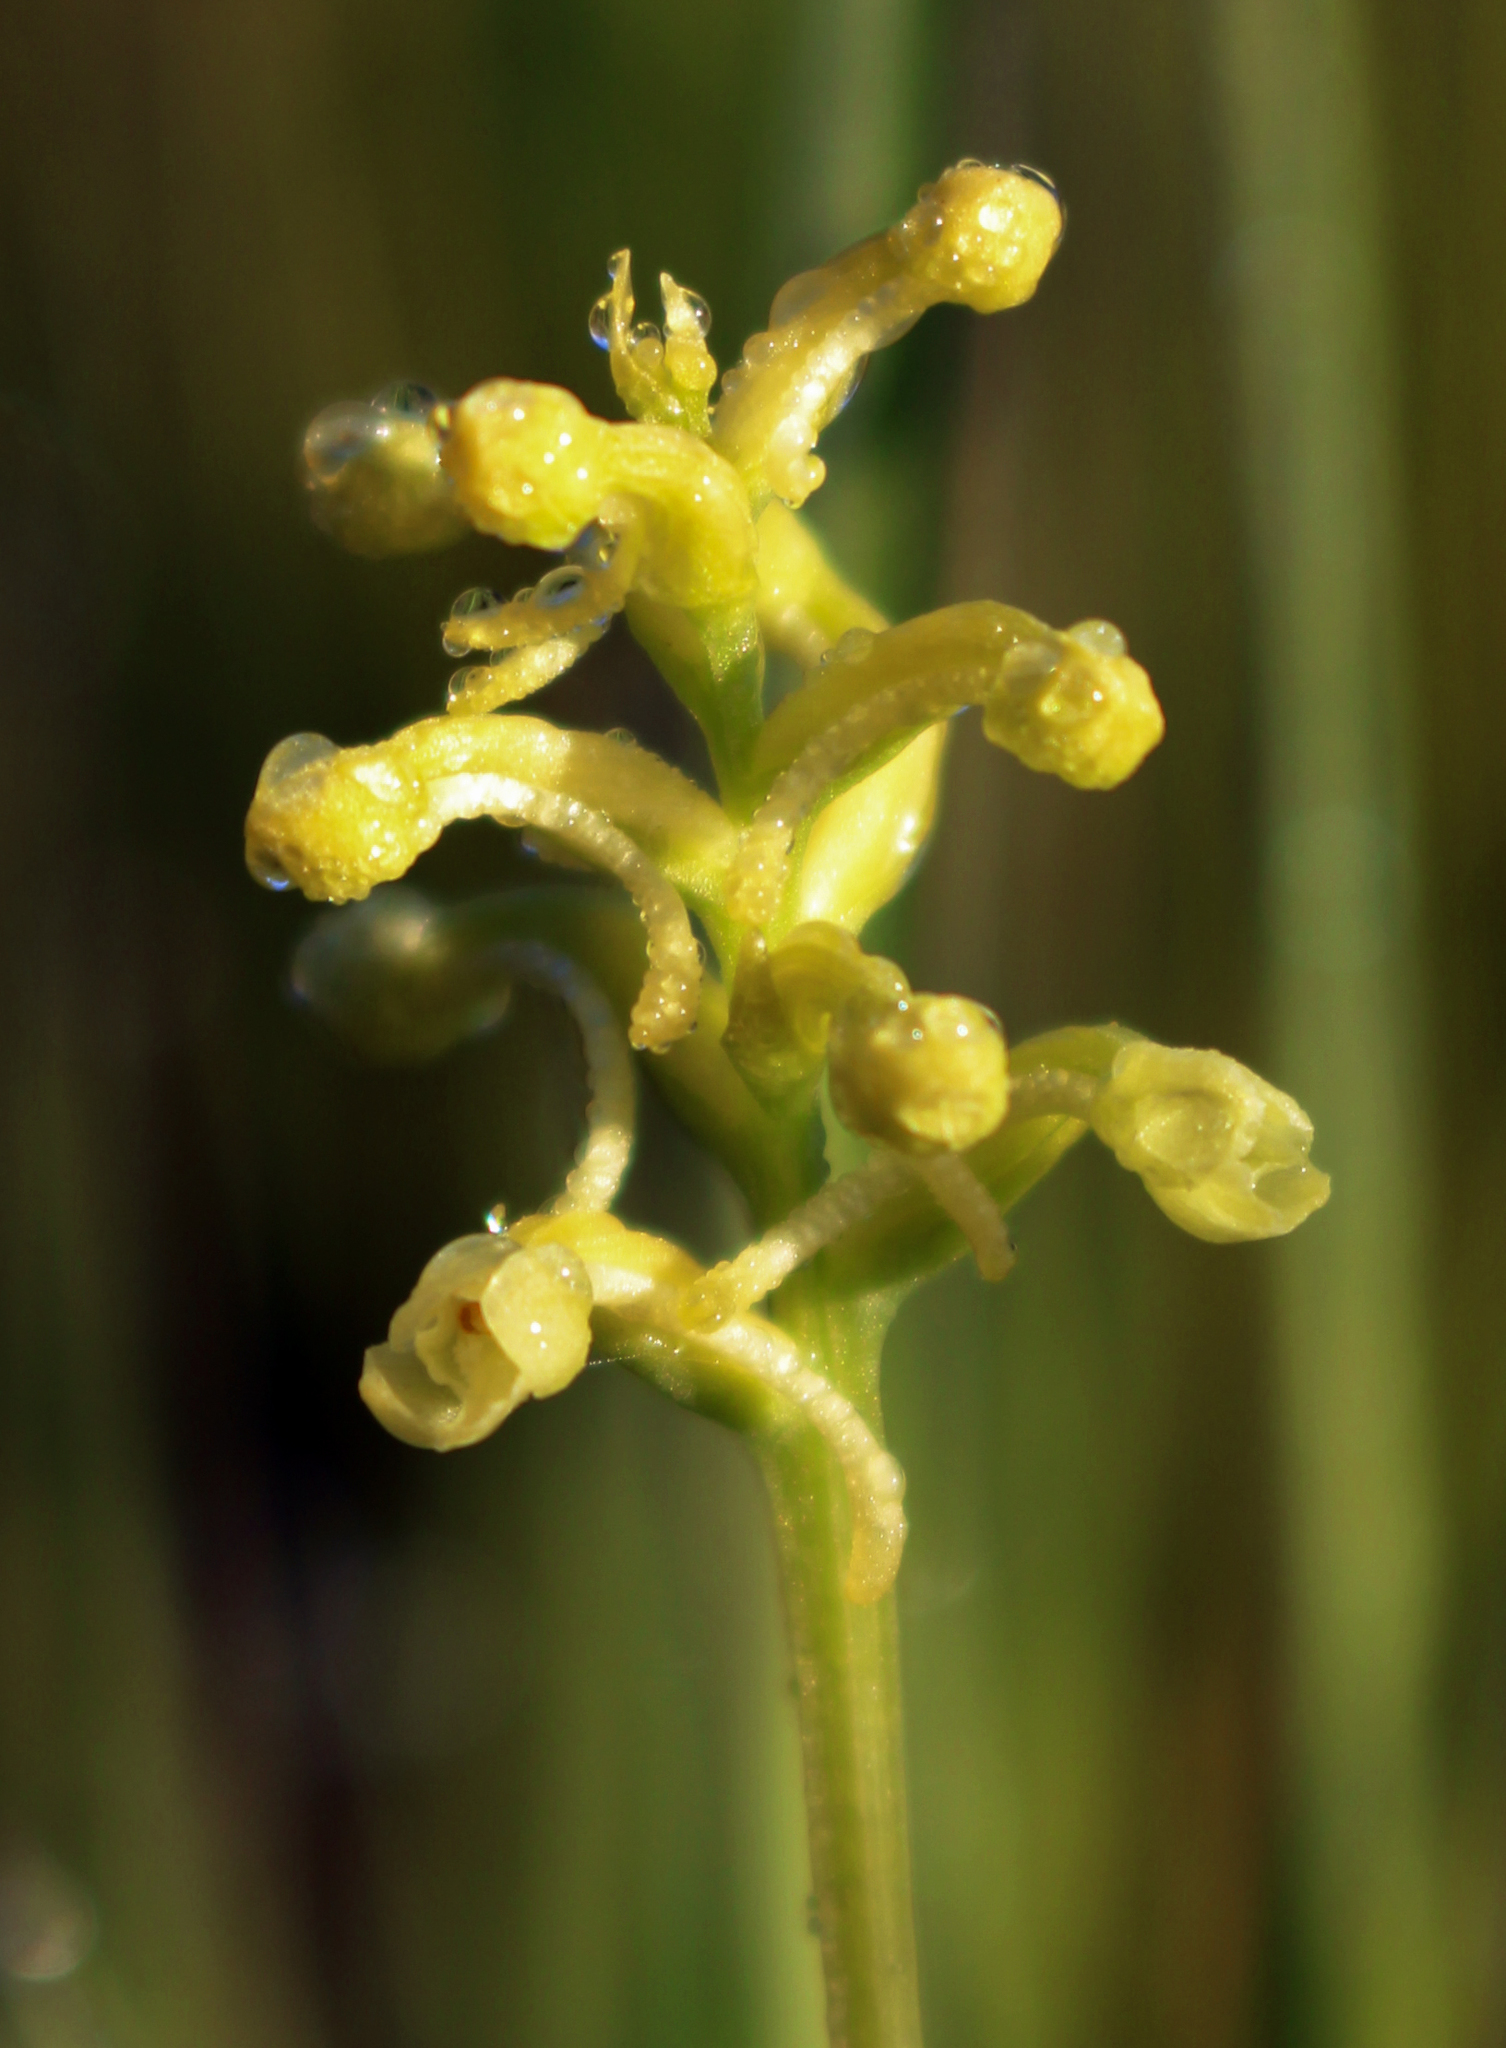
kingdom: Plantae
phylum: Tracheophyta
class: Liliopsida
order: Asparagales
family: Orchidaceae
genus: Platanthera
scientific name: Platanthera clavellata
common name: Club-spur orchid
